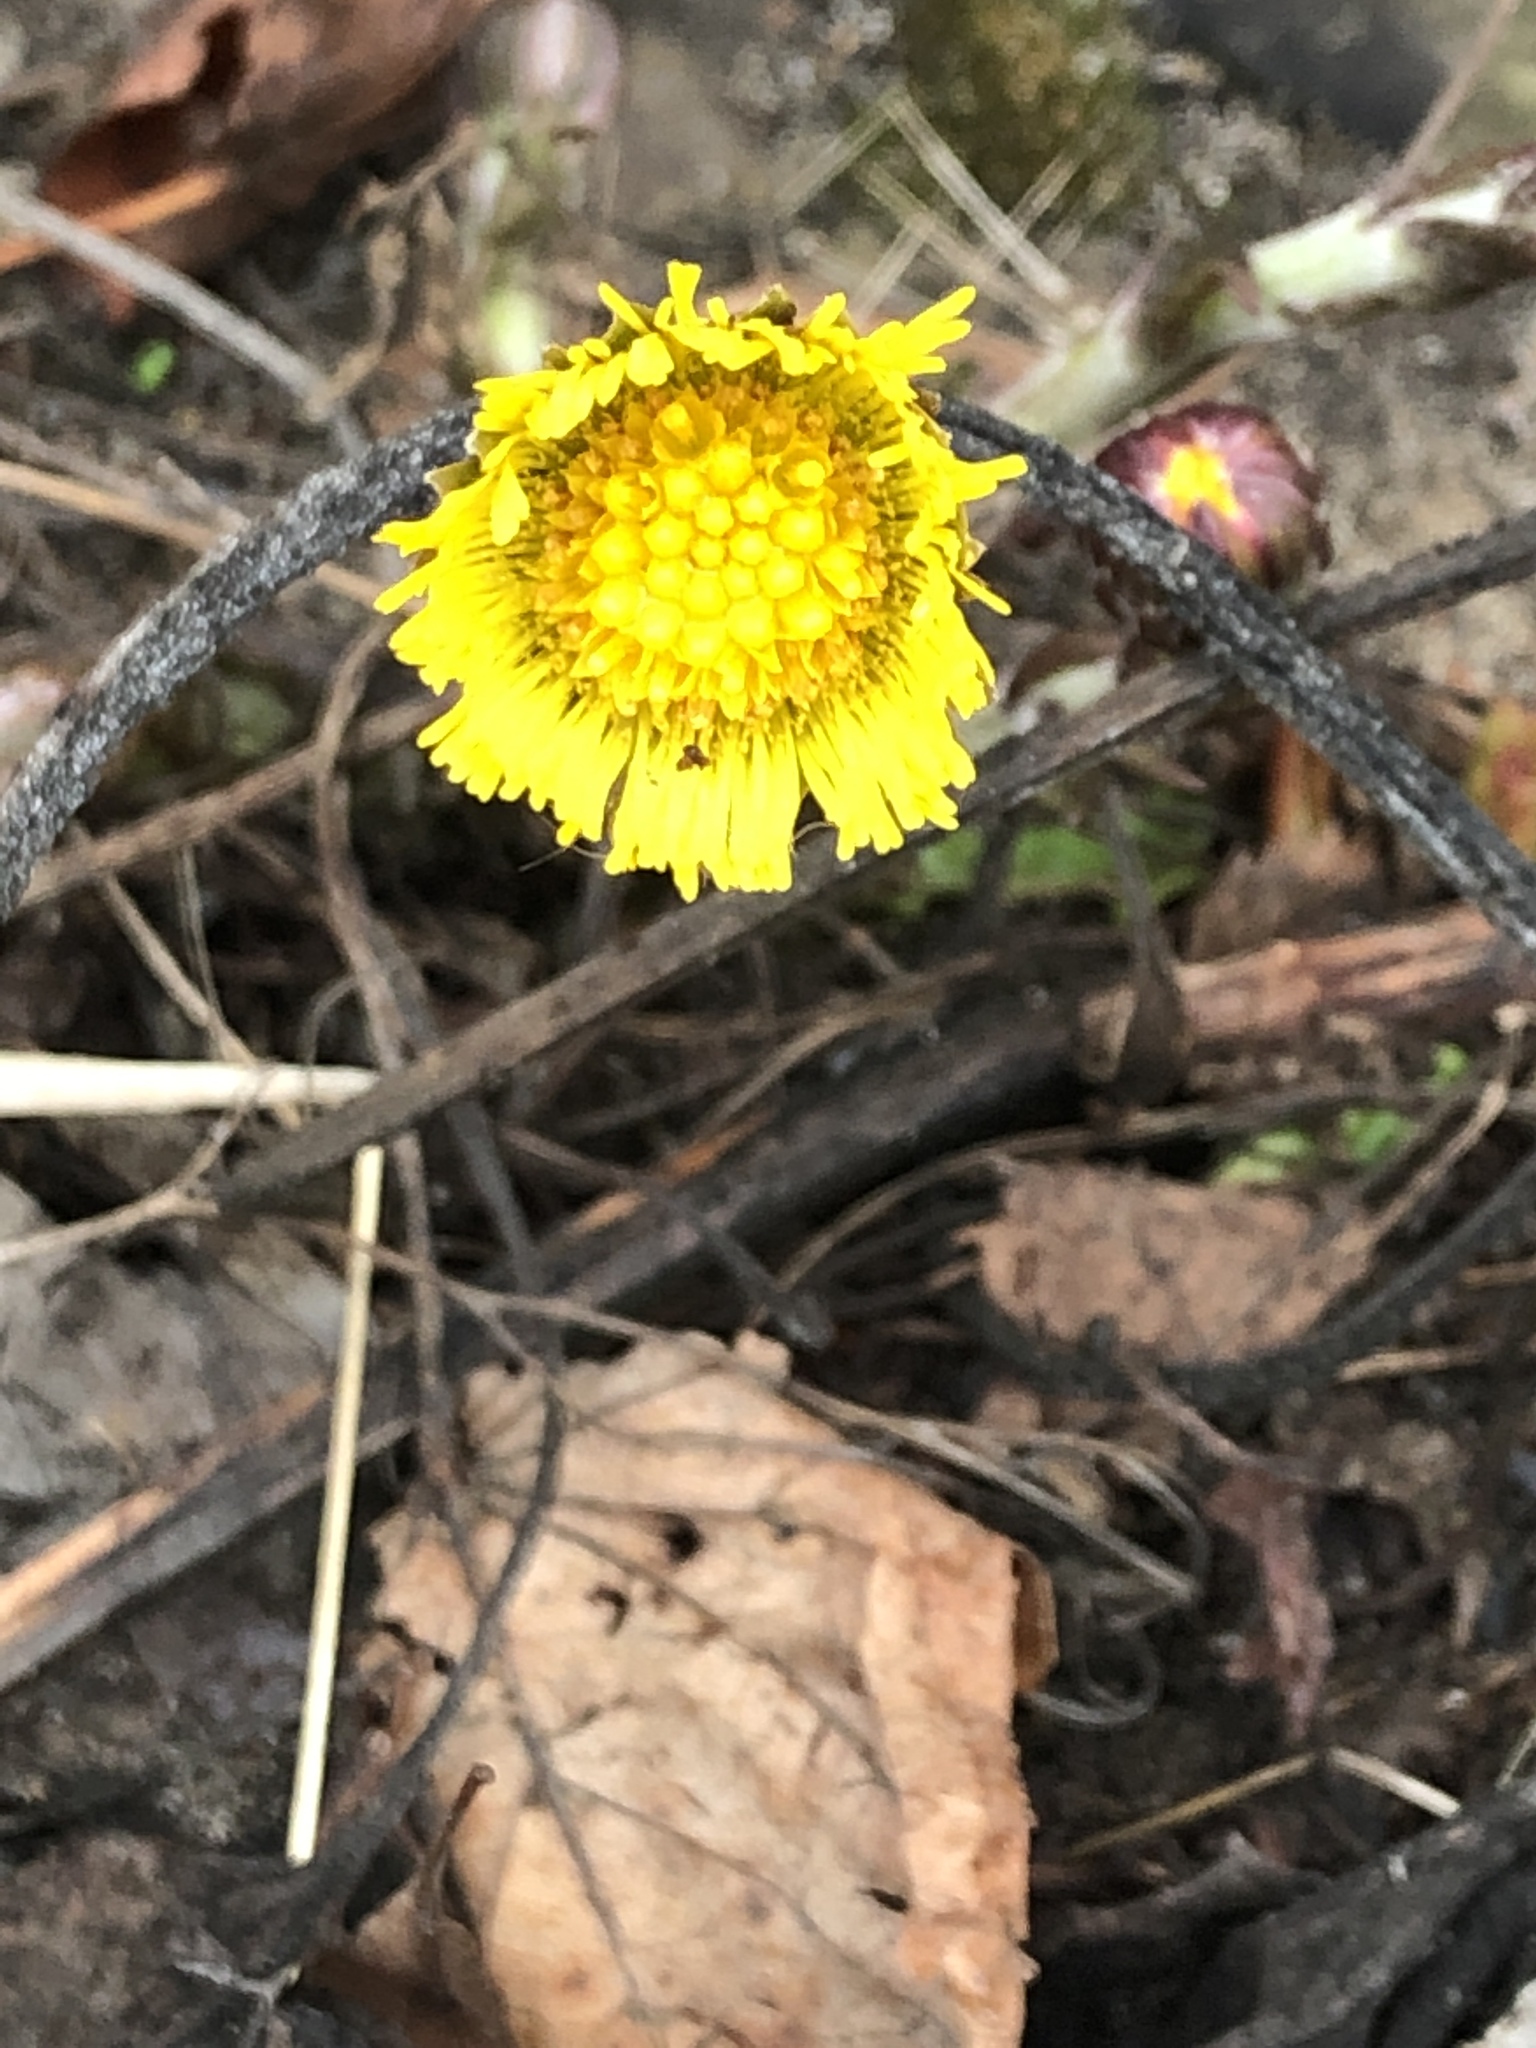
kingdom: Plantae
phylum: Tracheophyta
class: Magnoliopsida
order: Asterales
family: Asteraceae
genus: Tussilago
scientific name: Tussilago farfara
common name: Coltsfoot
